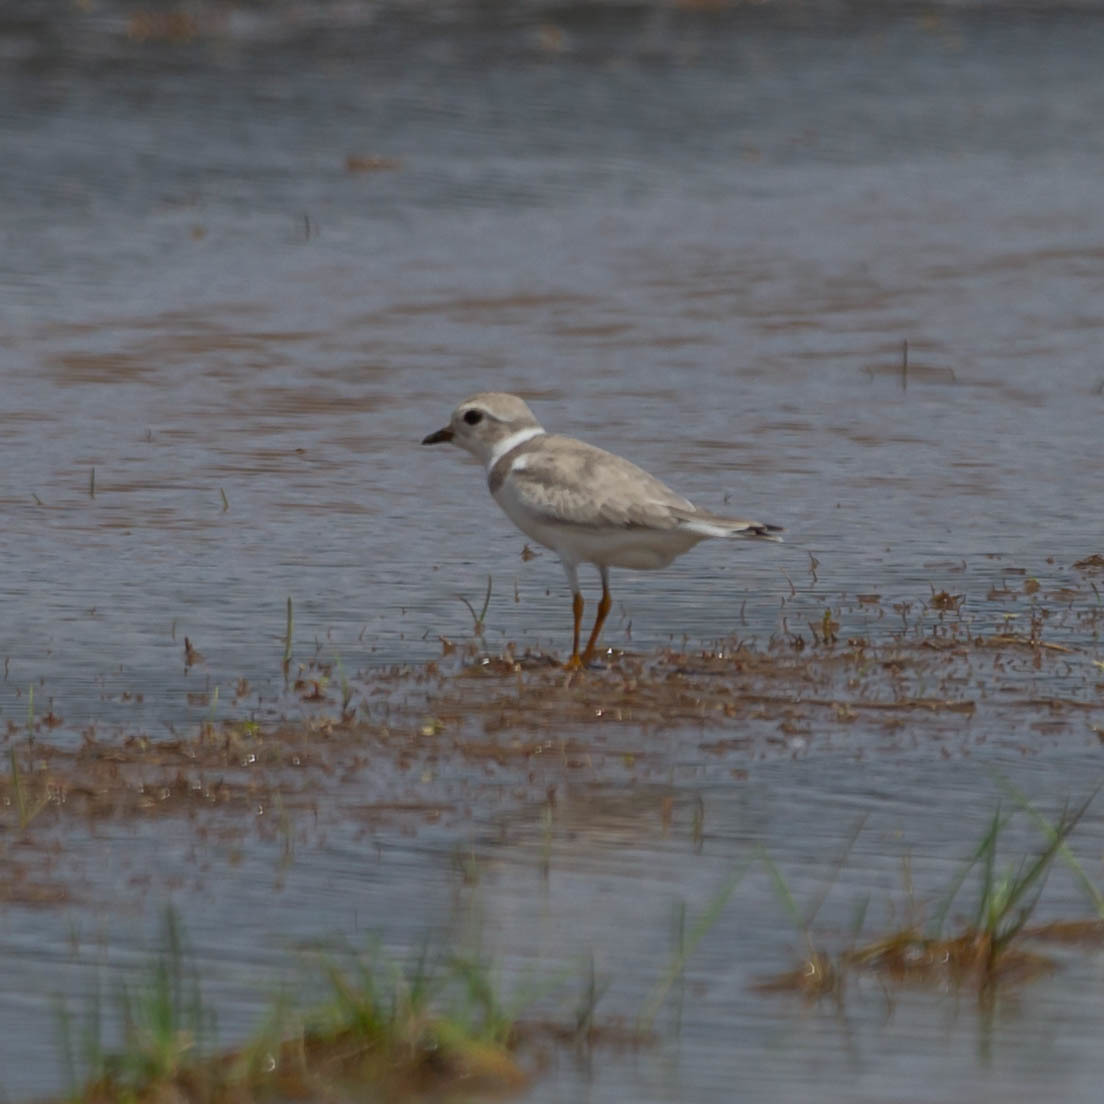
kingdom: Animalia
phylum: Chordata
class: Aves
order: Charadriiformes
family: Charadriidae
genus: Charadrius
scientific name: Charadrius melodus
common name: Piping plover
